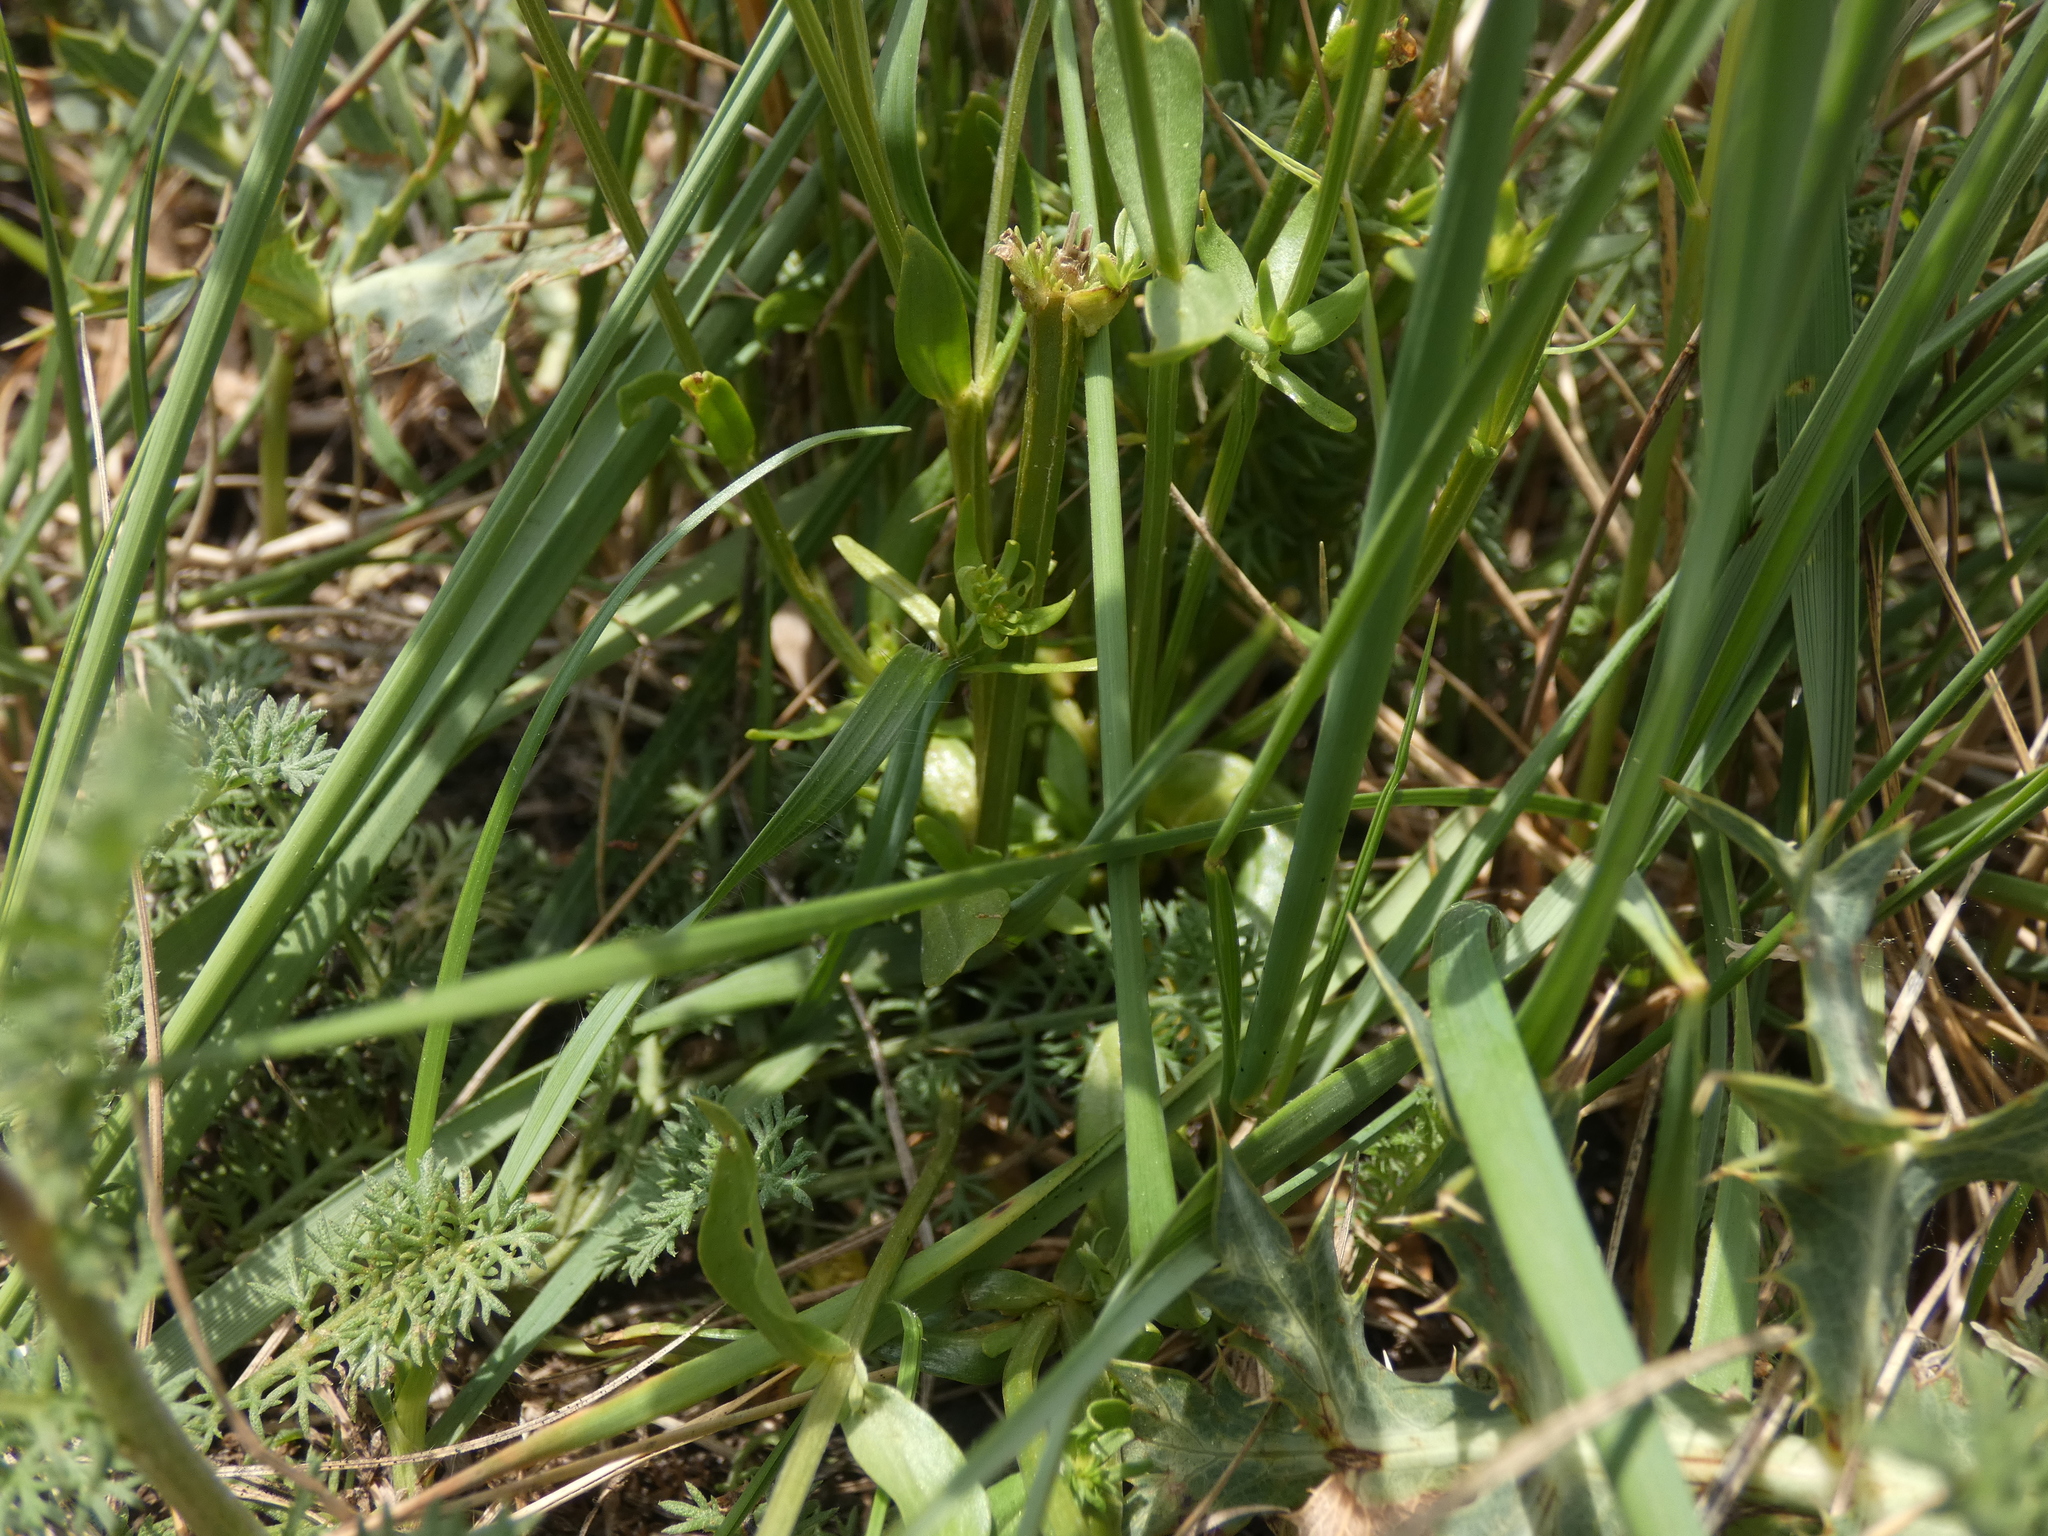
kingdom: Plantae
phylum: Tracheophyta
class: Magnoliopsida
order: Gentianales
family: Gentianaceae
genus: Centaurium
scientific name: Centaurium erythraea
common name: Common centaury
